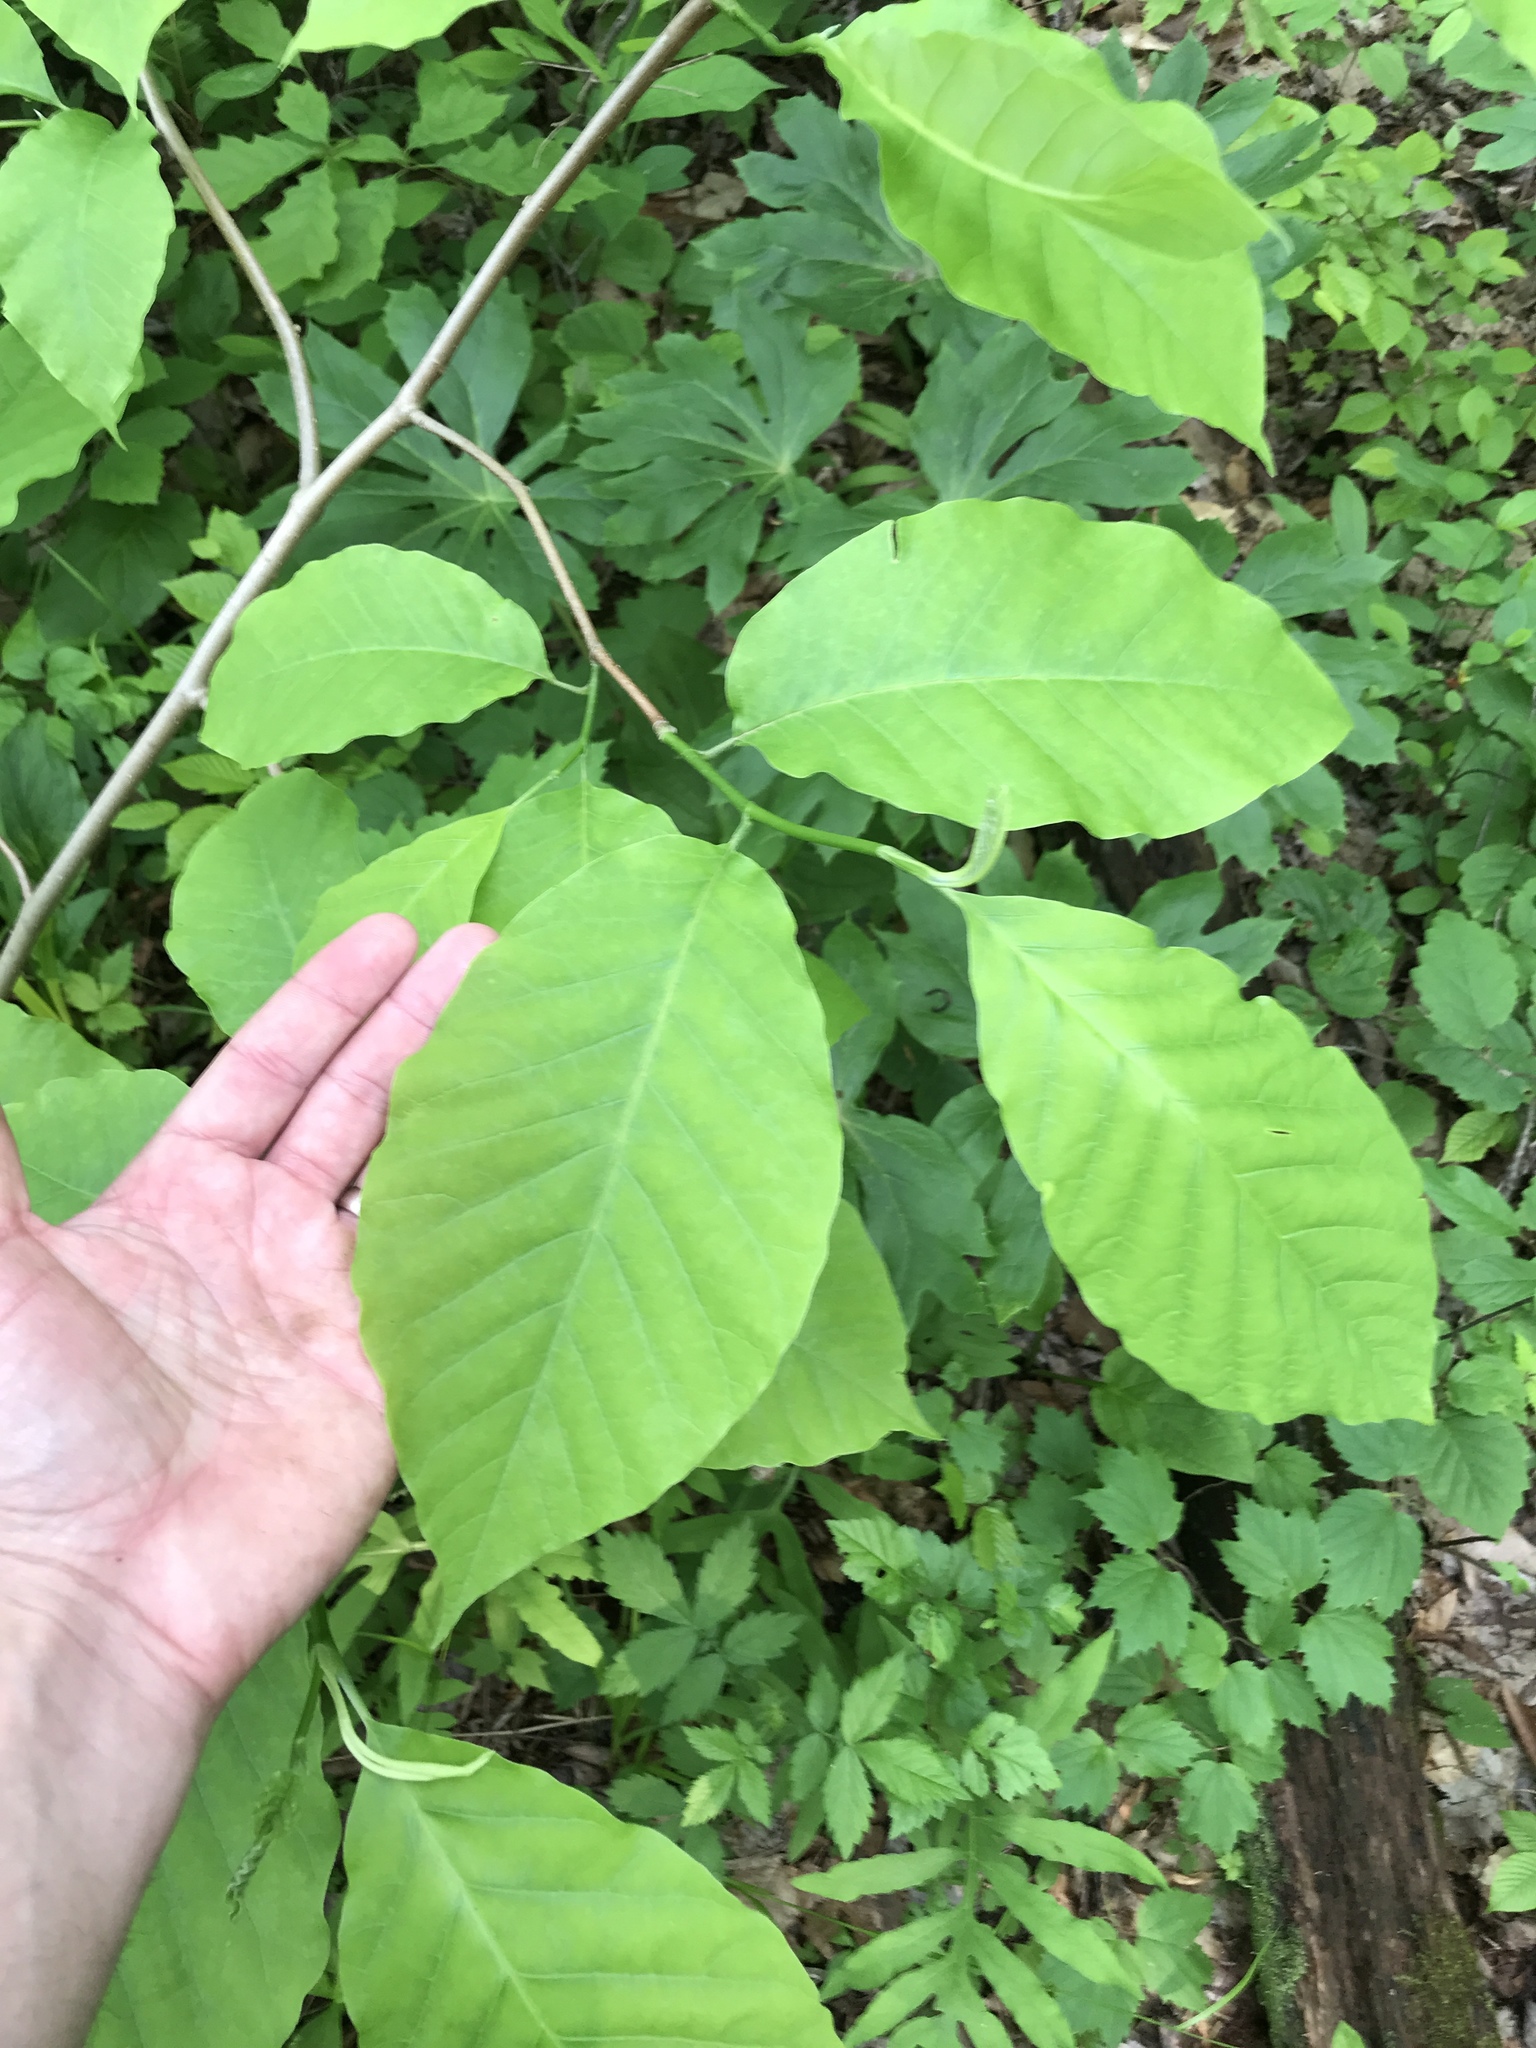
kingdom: Plantae
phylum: Tracheophyta
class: Magnoliopsida
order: Magnoliales
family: Magnoliaceae
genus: Magnolia
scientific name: Magnolia acuminata
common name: Cucumber magnolia
